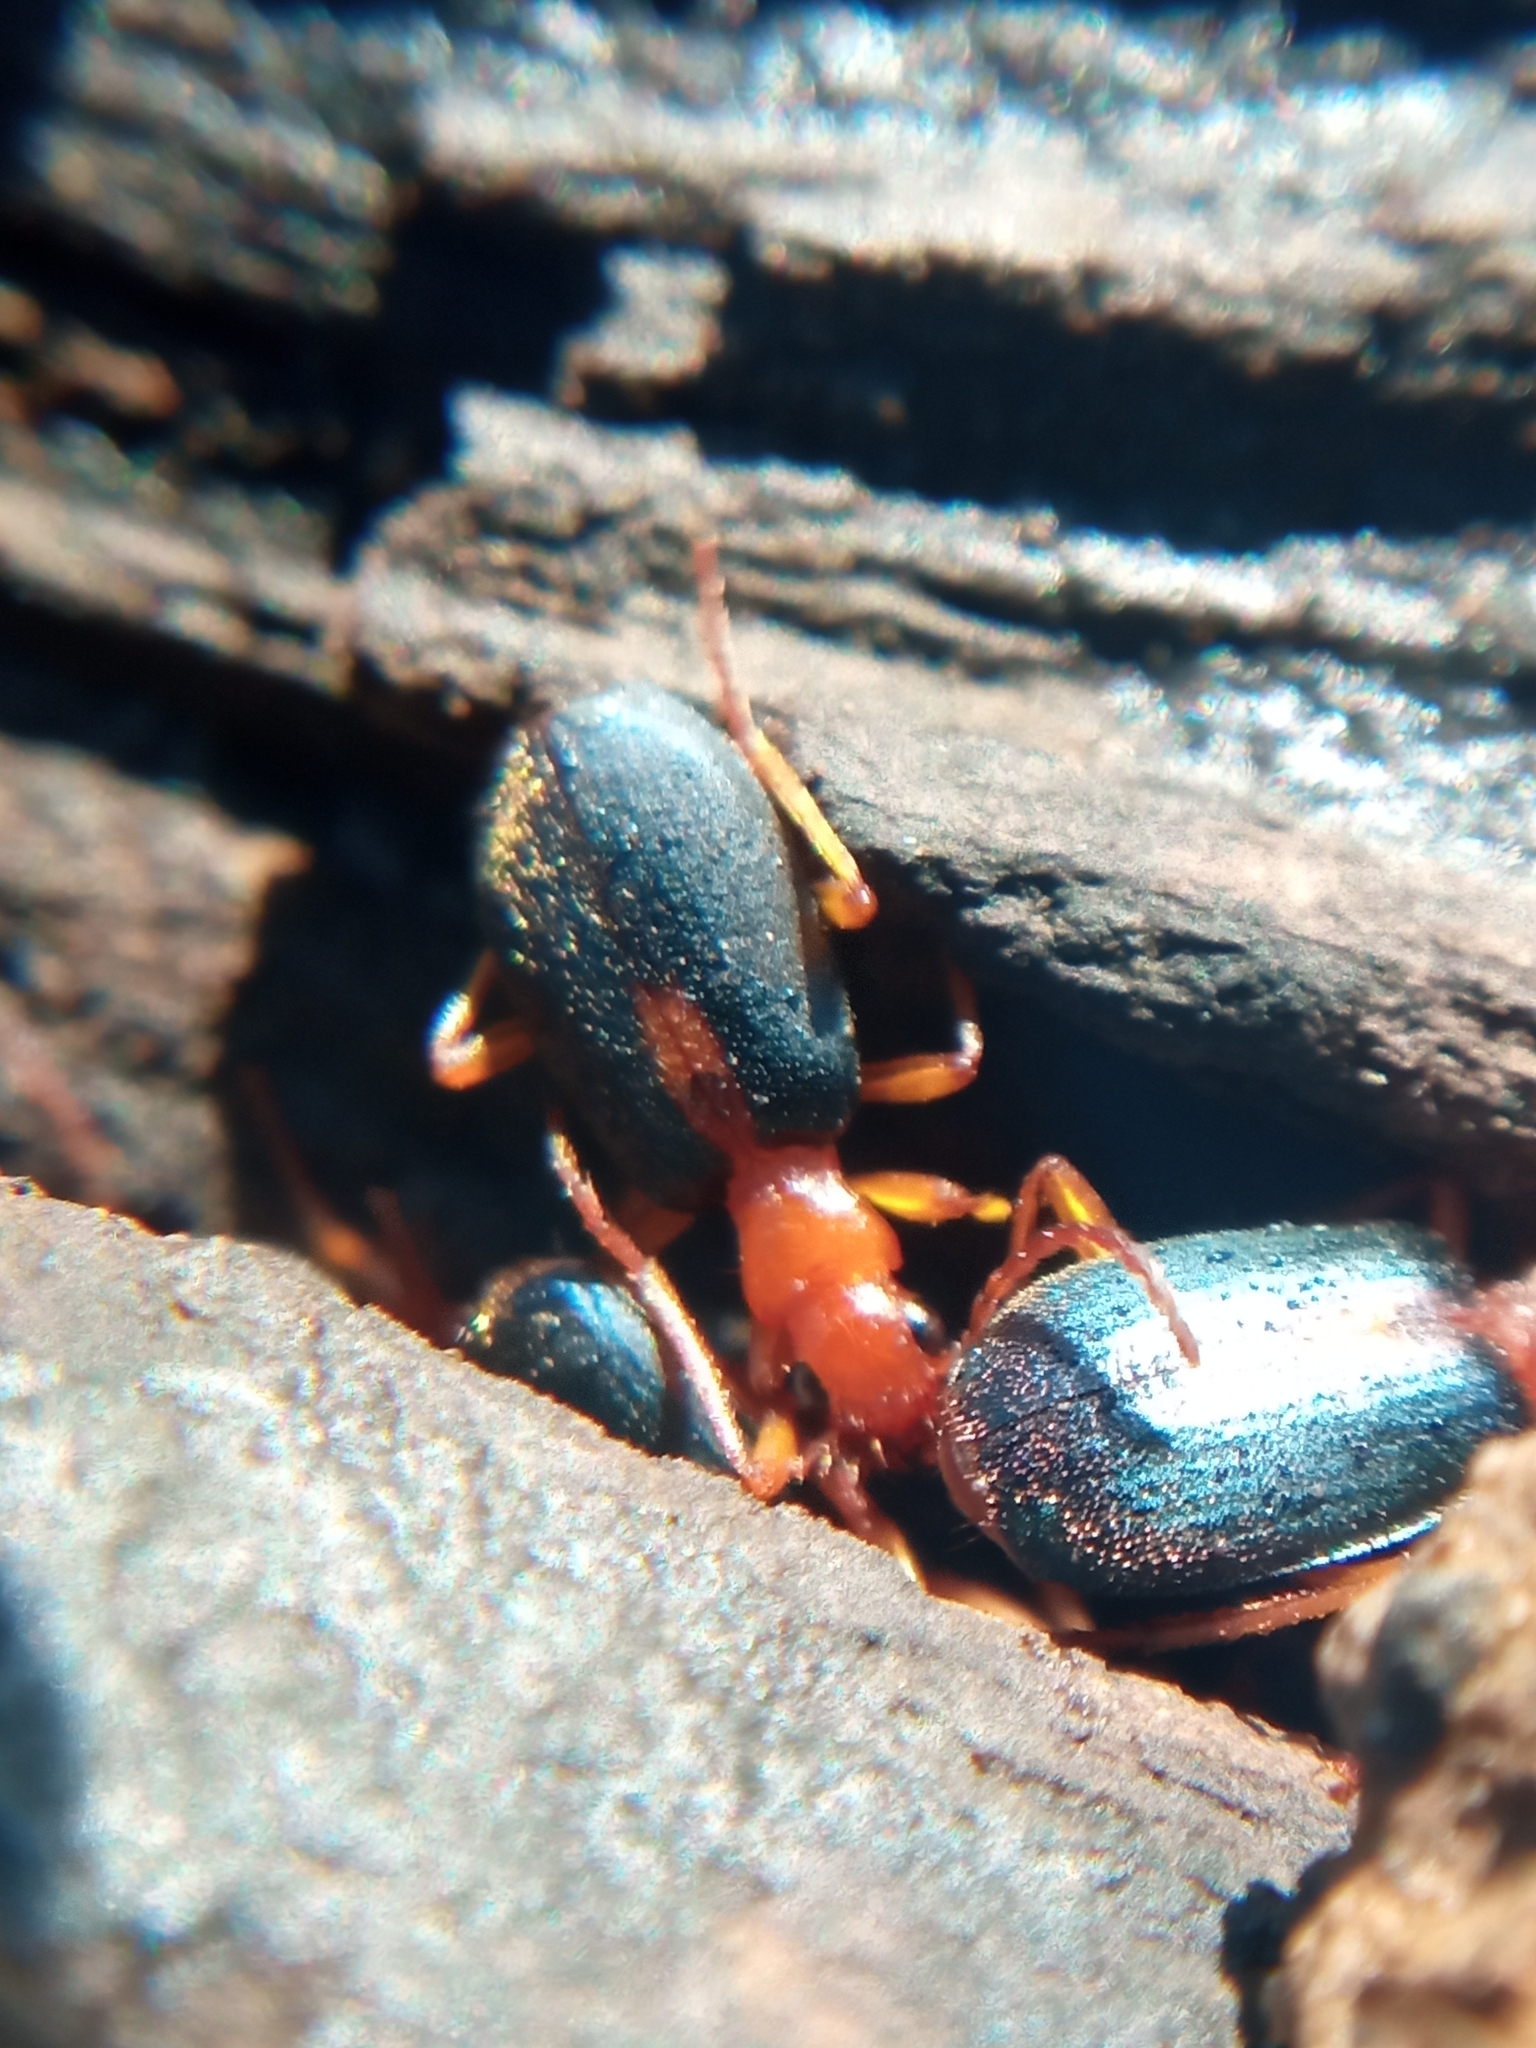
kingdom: Animalia
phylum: Arthropoda
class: Insecta
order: Coleoptera
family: Carabidae
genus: Brachinus
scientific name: Brachinus sclopeta
